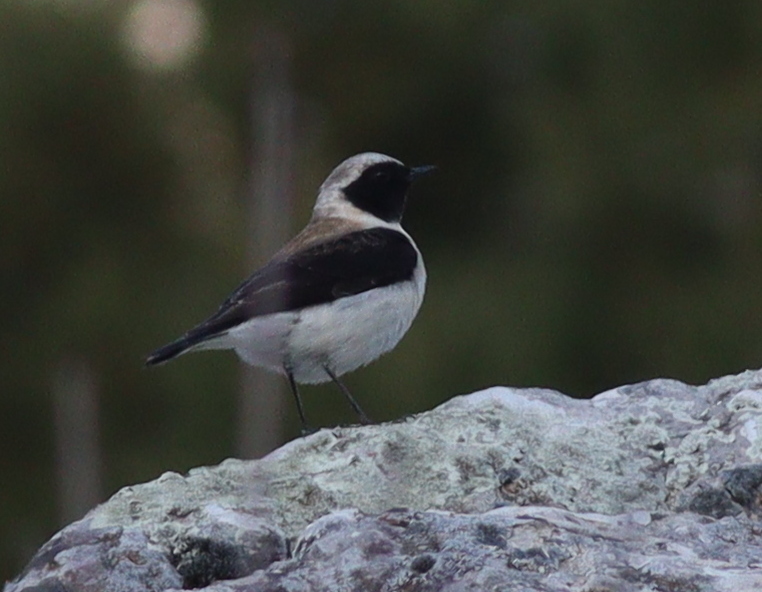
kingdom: Animalia
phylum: Chordata
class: Aves
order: Passeriformes
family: Muscicapidae
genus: Oenanthe
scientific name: Oenanthe hispanica
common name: Black-eared wheatear
